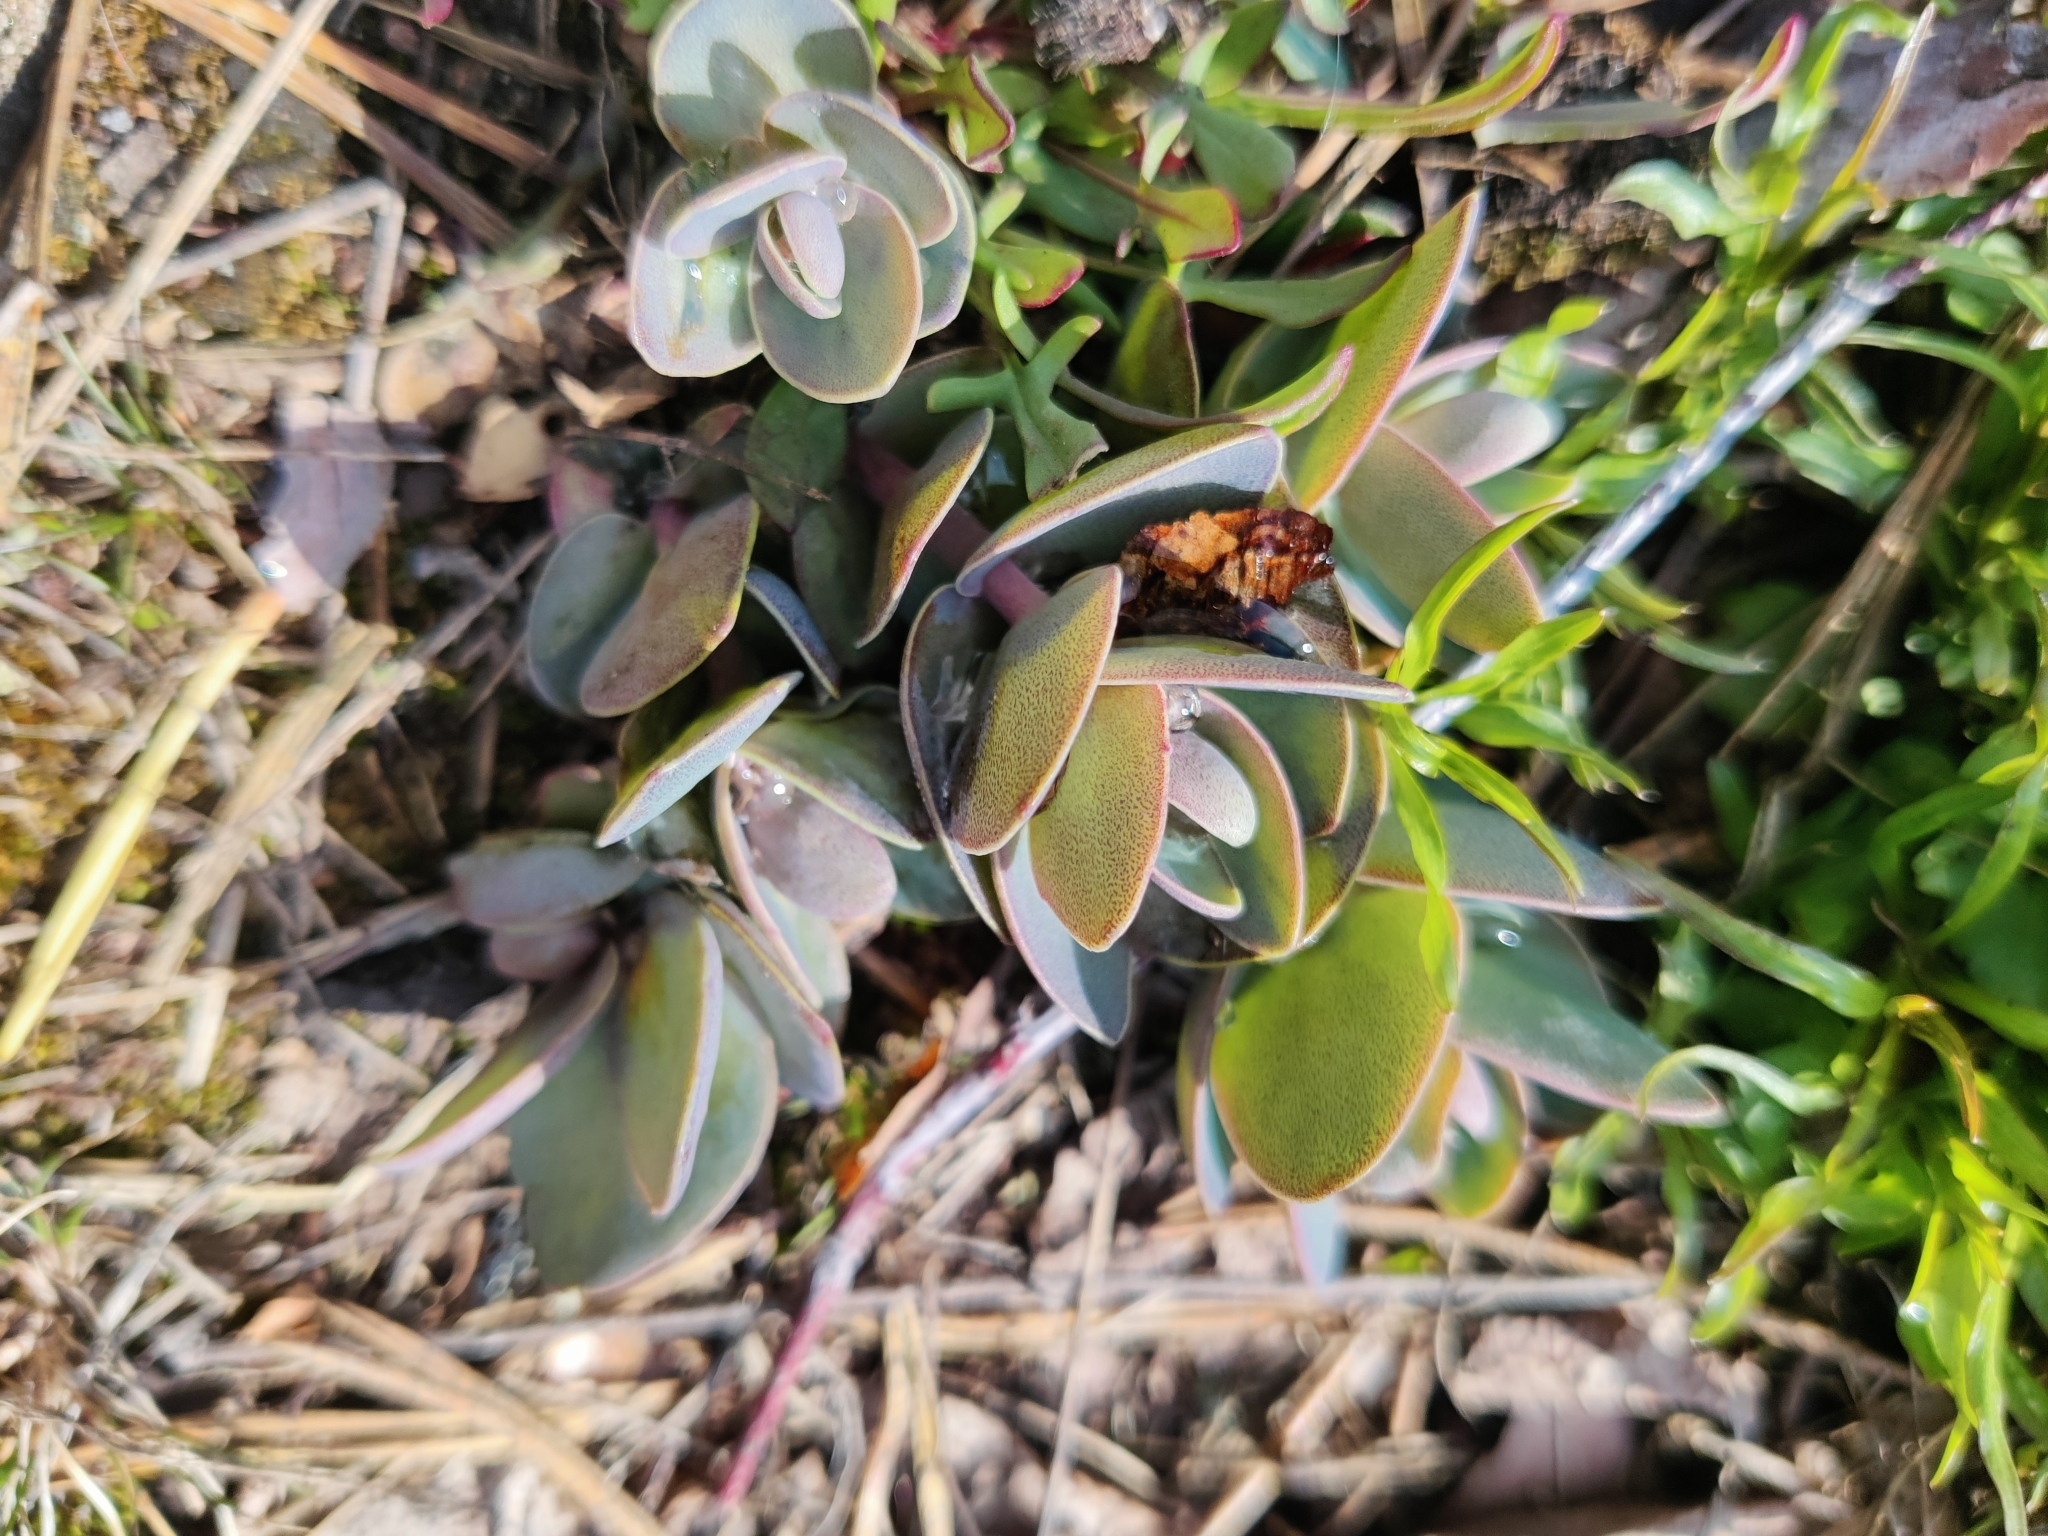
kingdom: Plantae
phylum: Tracheophyta
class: Magnoliopsida
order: Saxifragales
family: Crassulaceae
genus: Hylotelephium
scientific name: Hylotelephium maximum
